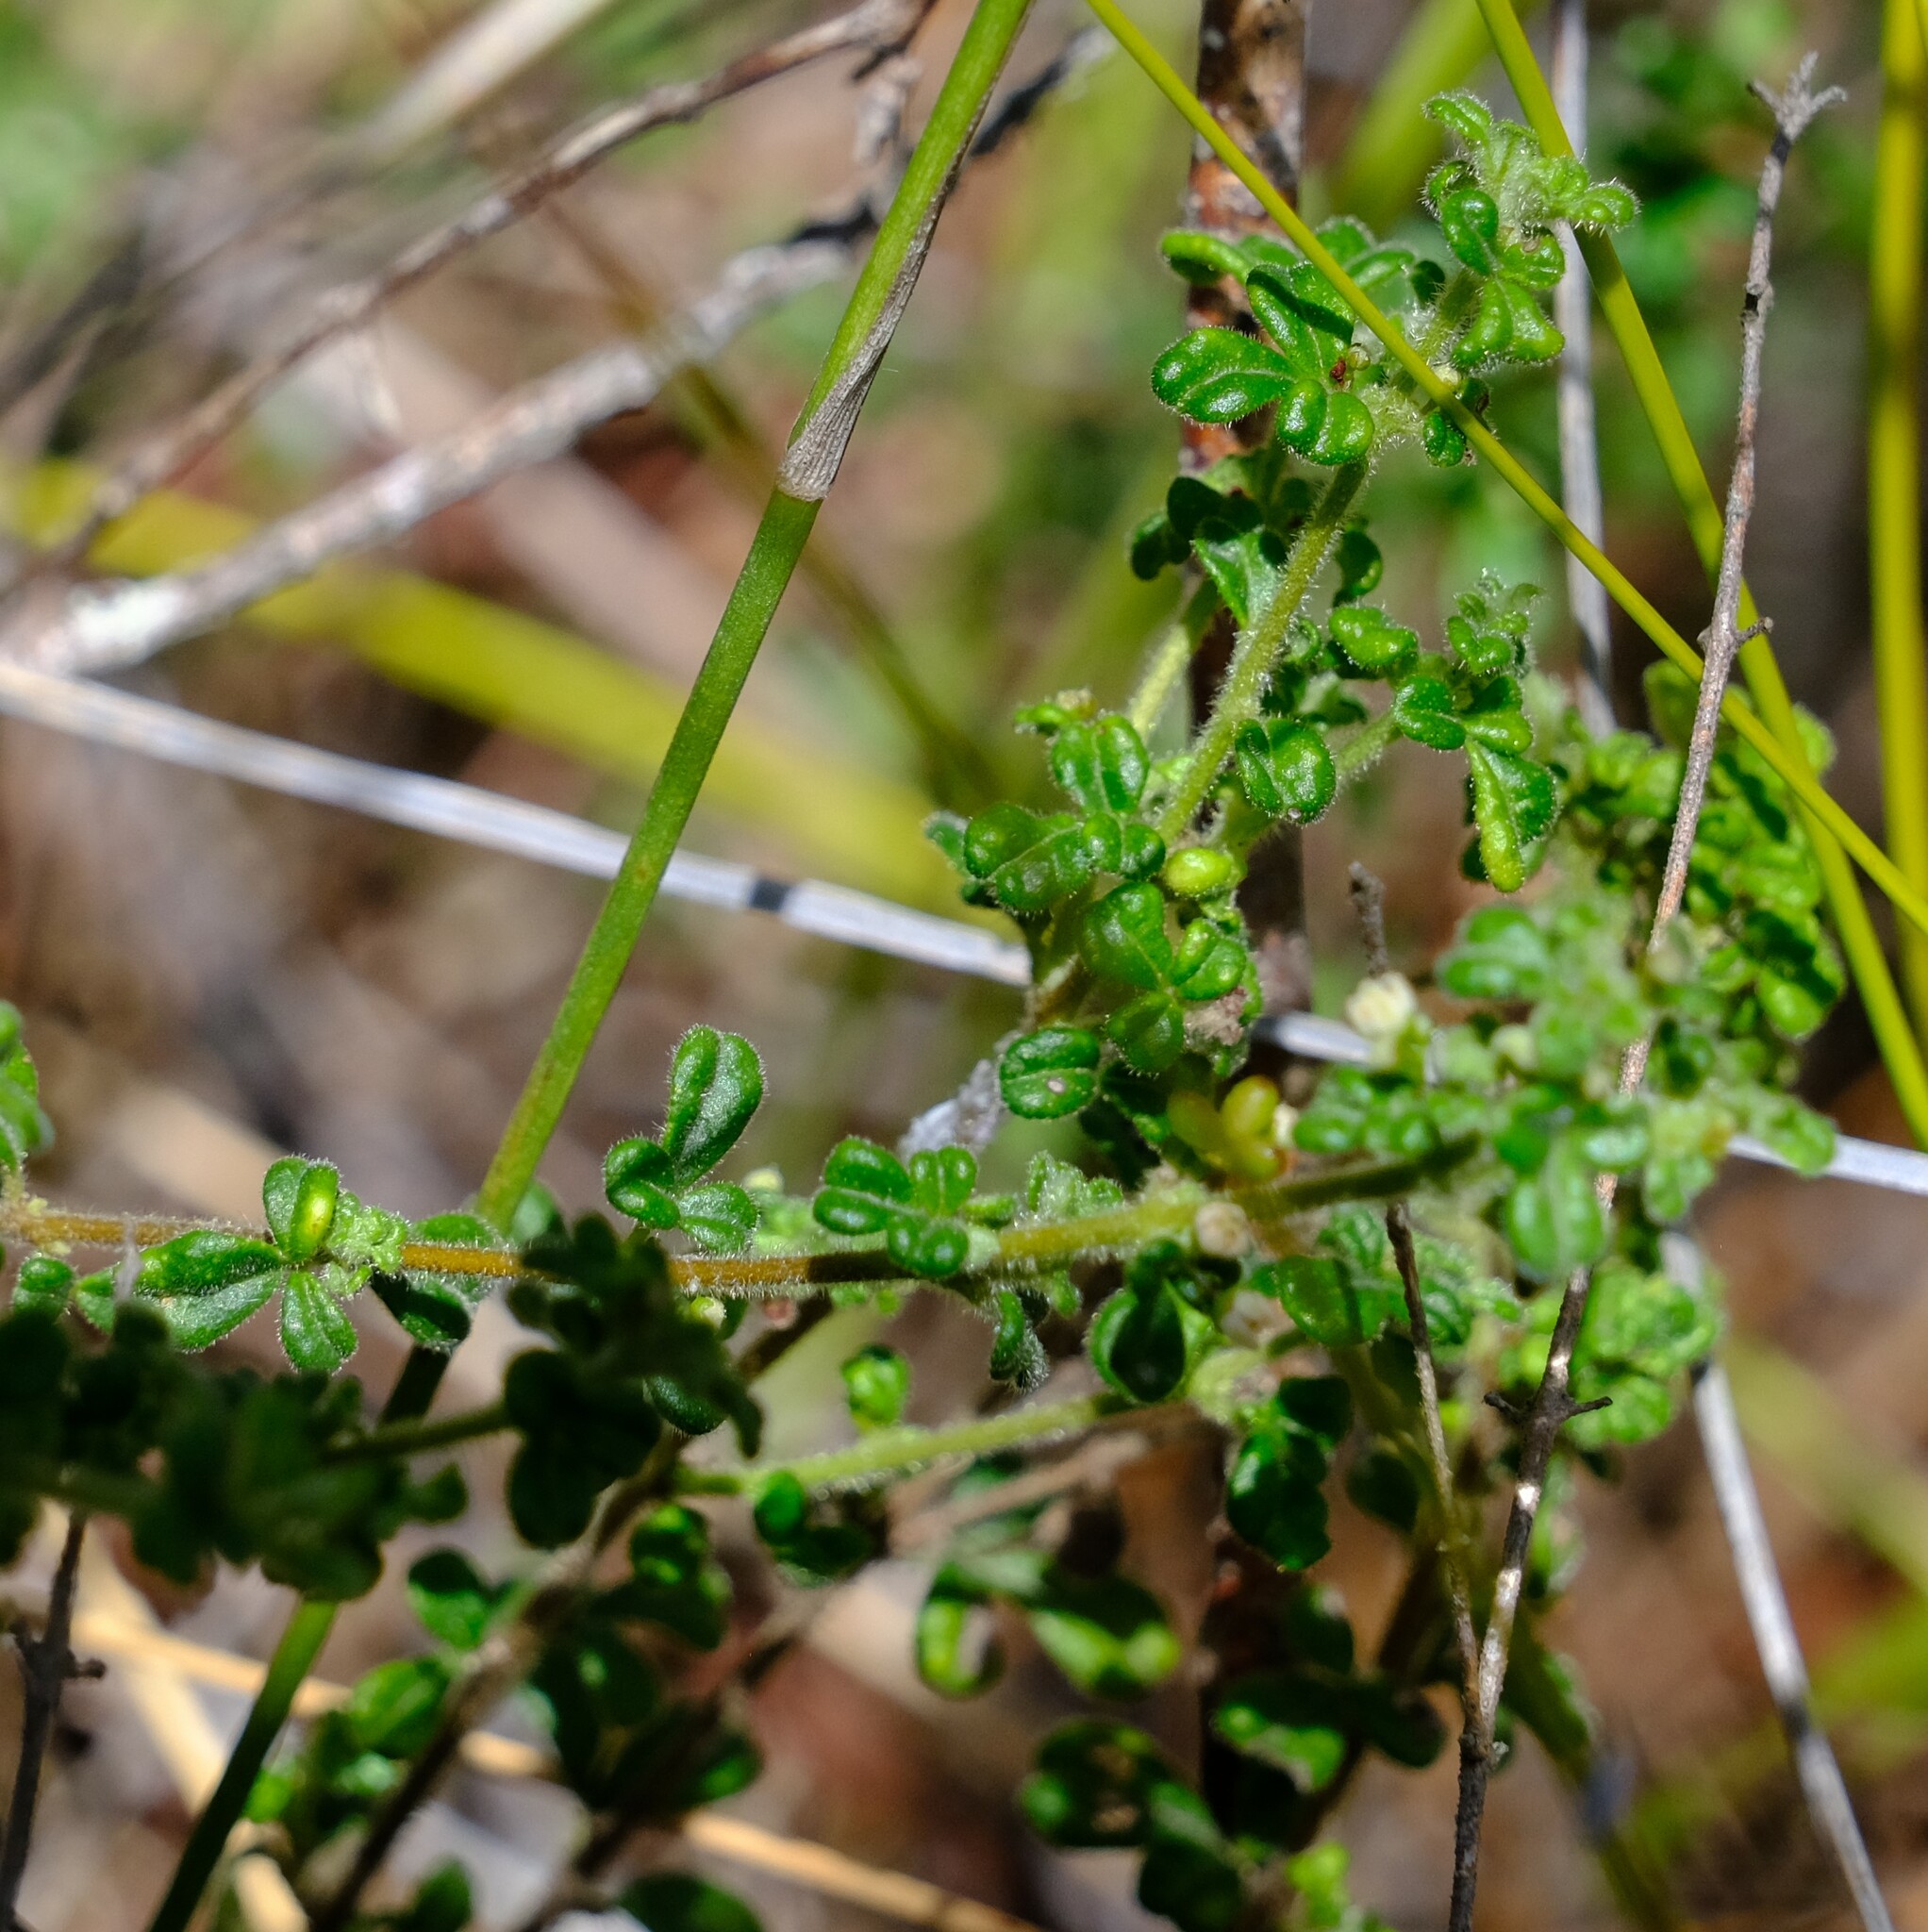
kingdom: Plantae
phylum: Tracheophyta
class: Magnoliopsida
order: Sapindales
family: Rutaceae
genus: Zieria
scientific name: Zieria minutiflora
